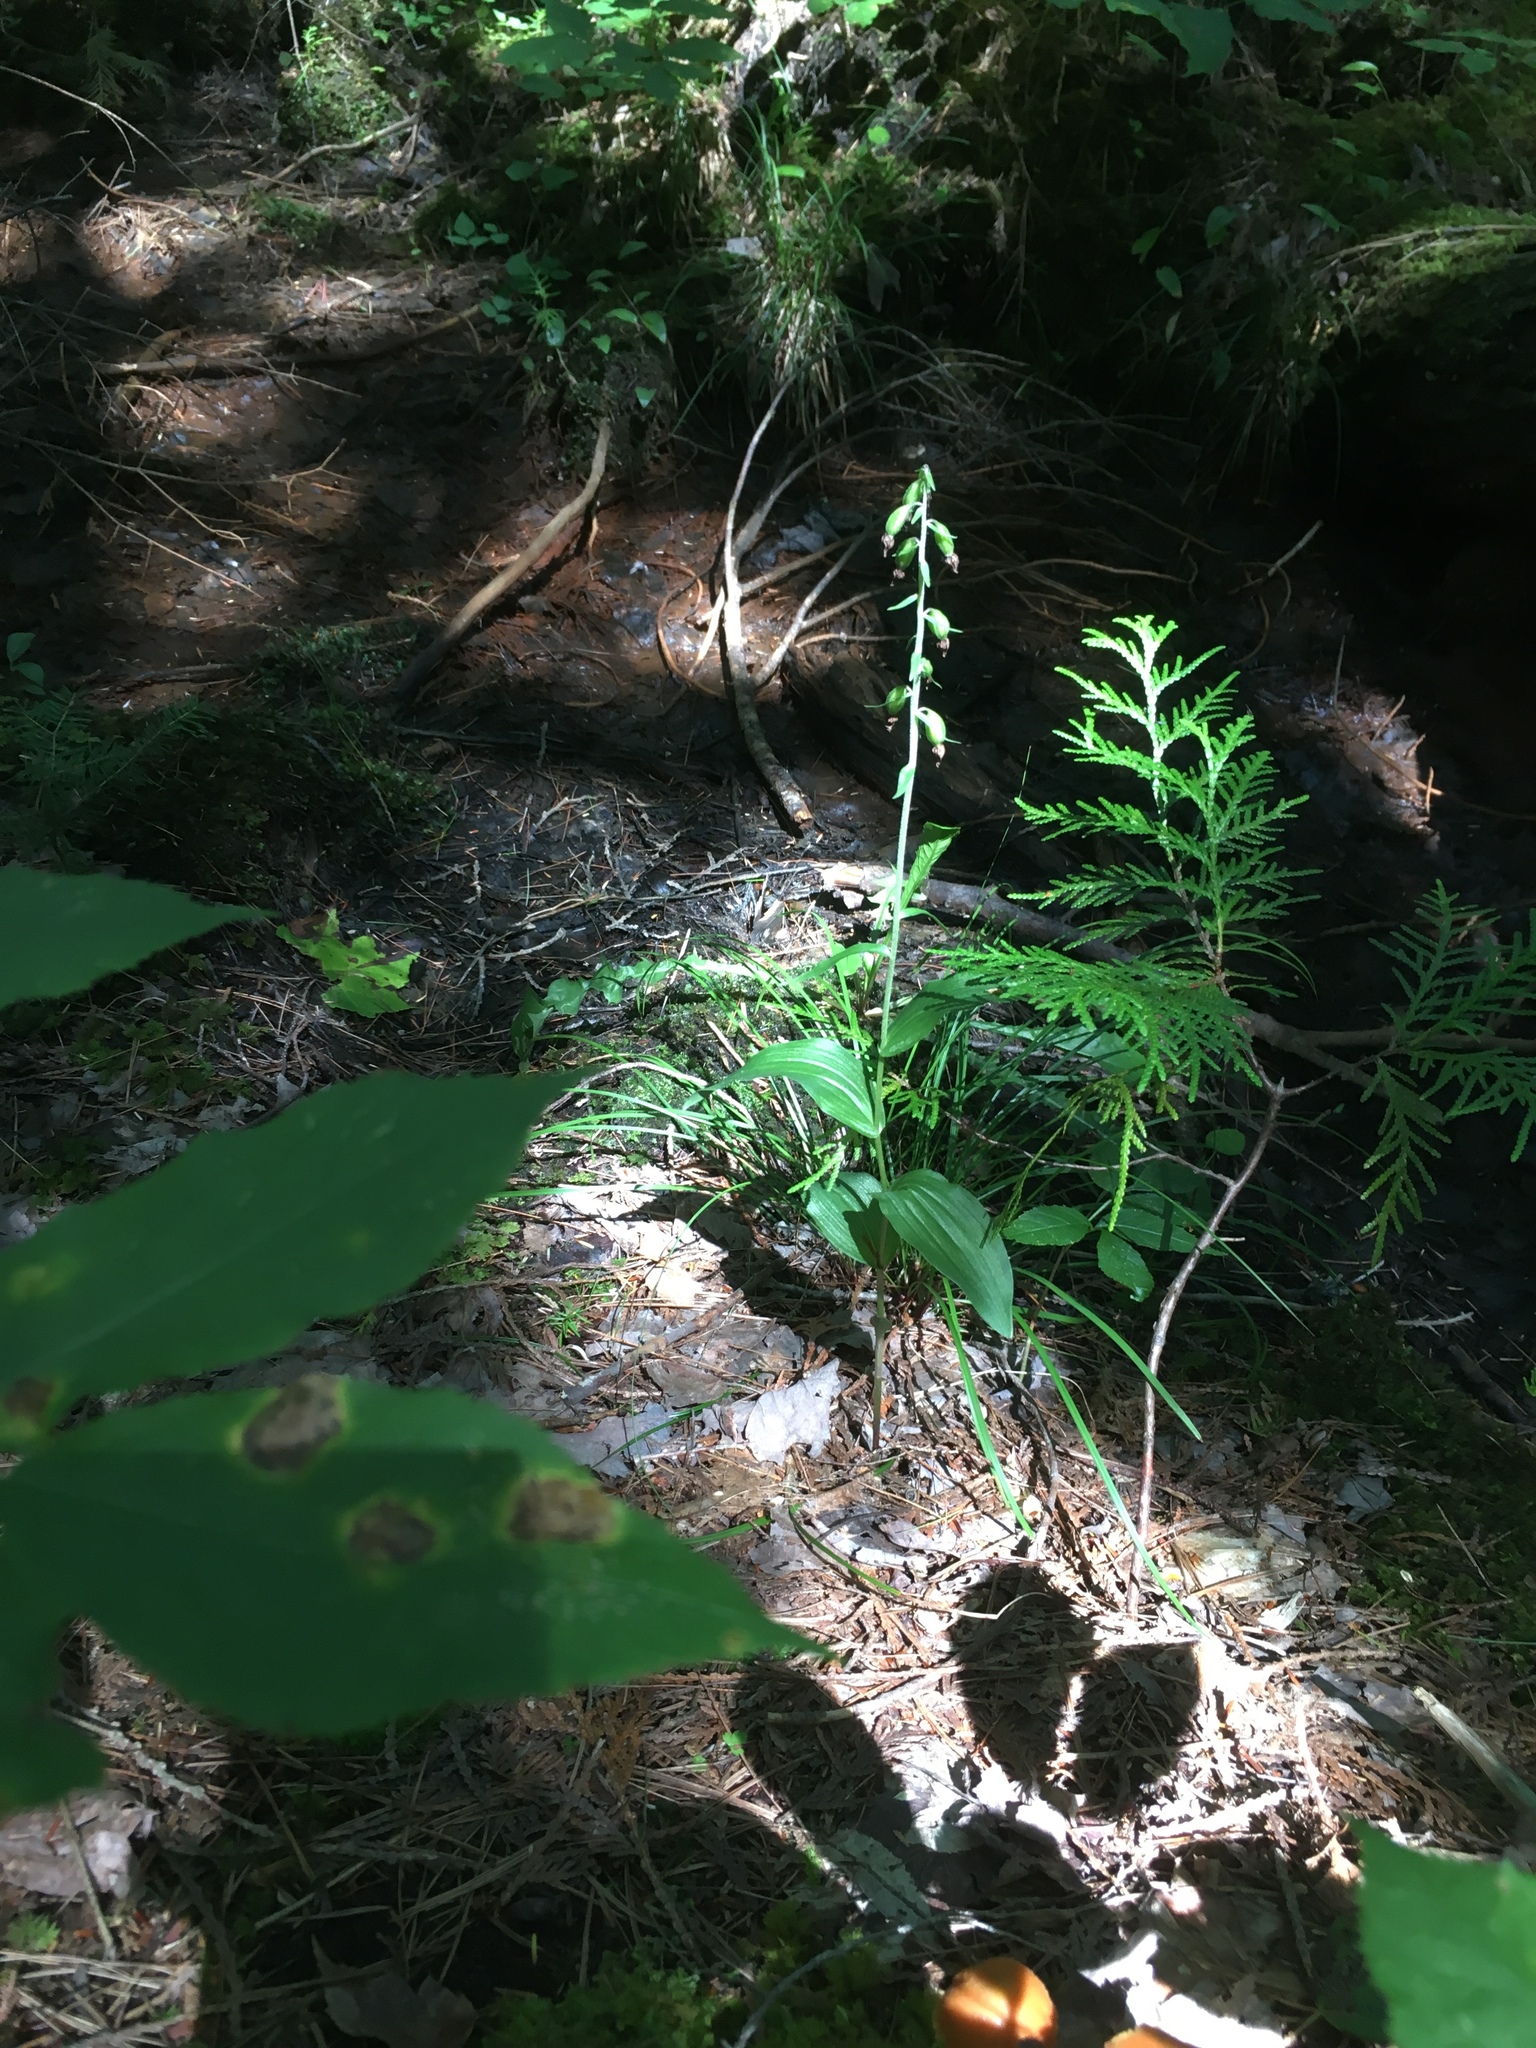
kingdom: Plantae
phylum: Tracheophyta
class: Liliopsida
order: Asparagales
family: Orchidaceae
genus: Epipactis
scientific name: Epipactis helleborine
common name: Broad-leaved helleborine
